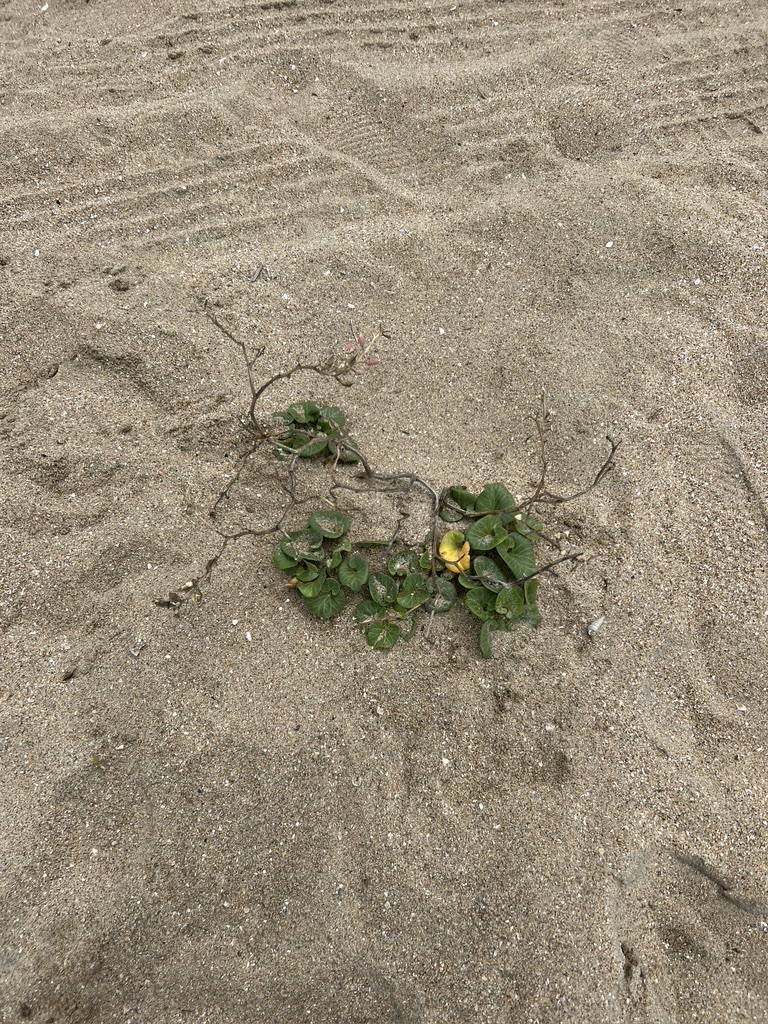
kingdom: Plantae
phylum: Tracheophyta
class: Magnoliopsida
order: Solanales
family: Convolvulaceae
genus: Calystegia
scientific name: Calystegia soldanella
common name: Sea bindweed
